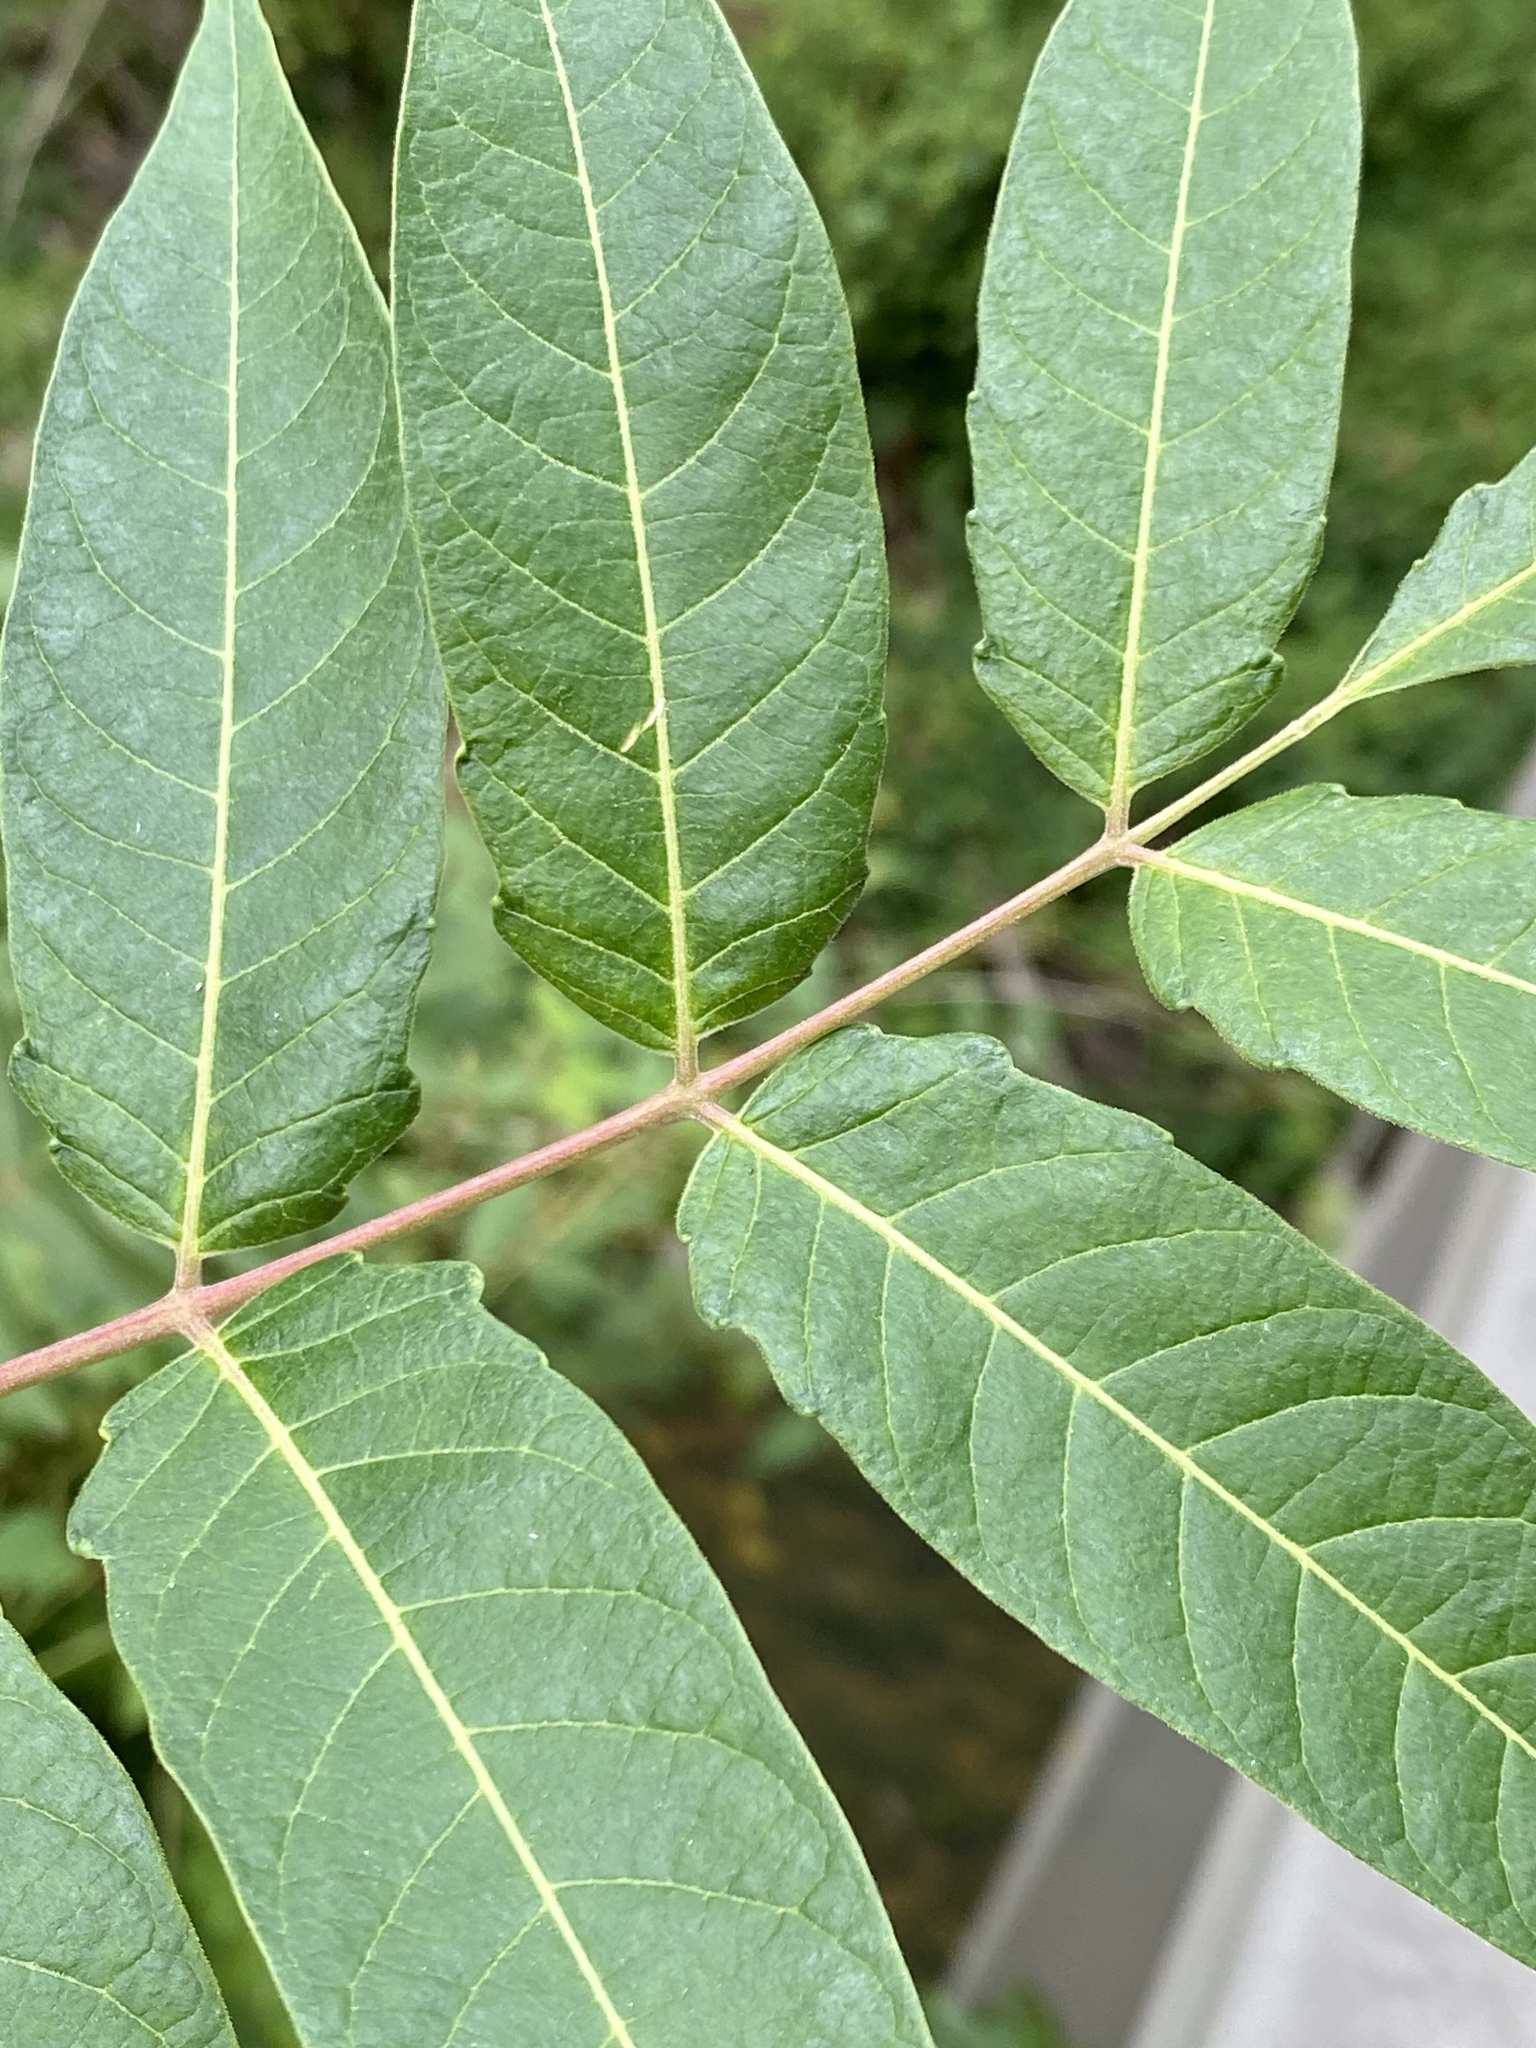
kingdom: Plantae
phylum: Tracheophyta
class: Magnoliopsida
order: Sapindales
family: Simaroubaceae
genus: Ailanthus
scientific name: Ailanthus altissima
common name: Tree-of-heaven
